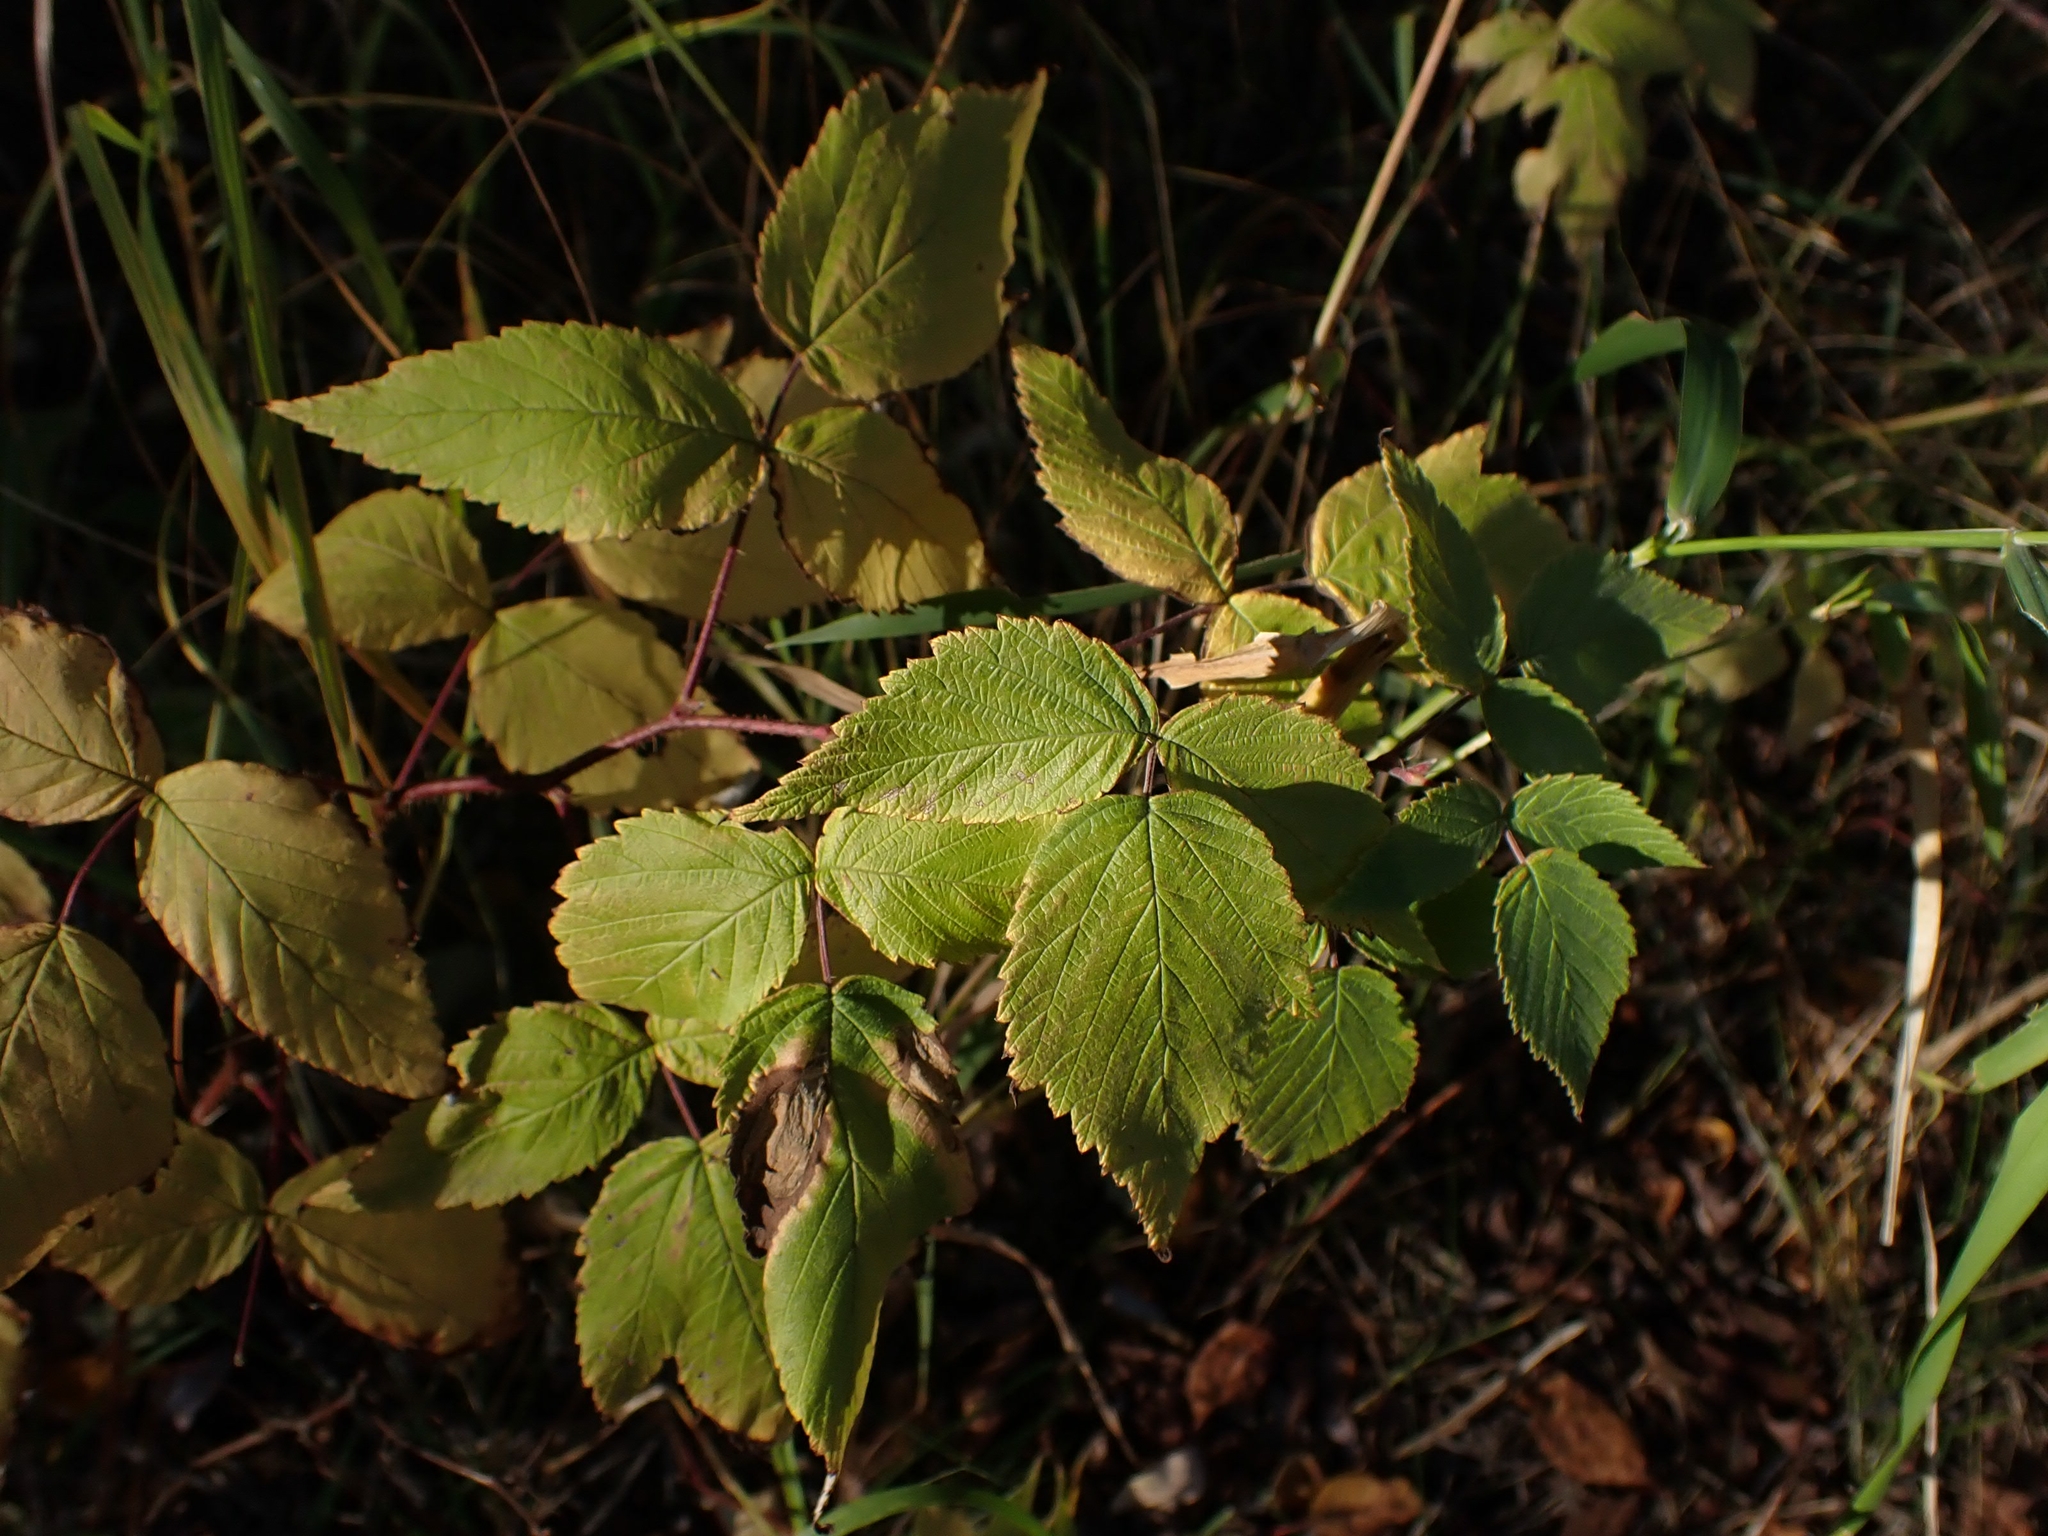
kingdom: Plantae
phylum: Tracheophyta
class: Magnoliopsida
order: Rosales
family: Rosaceae
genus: Rubus
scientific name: Rubus idaeus
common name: Raspberry
